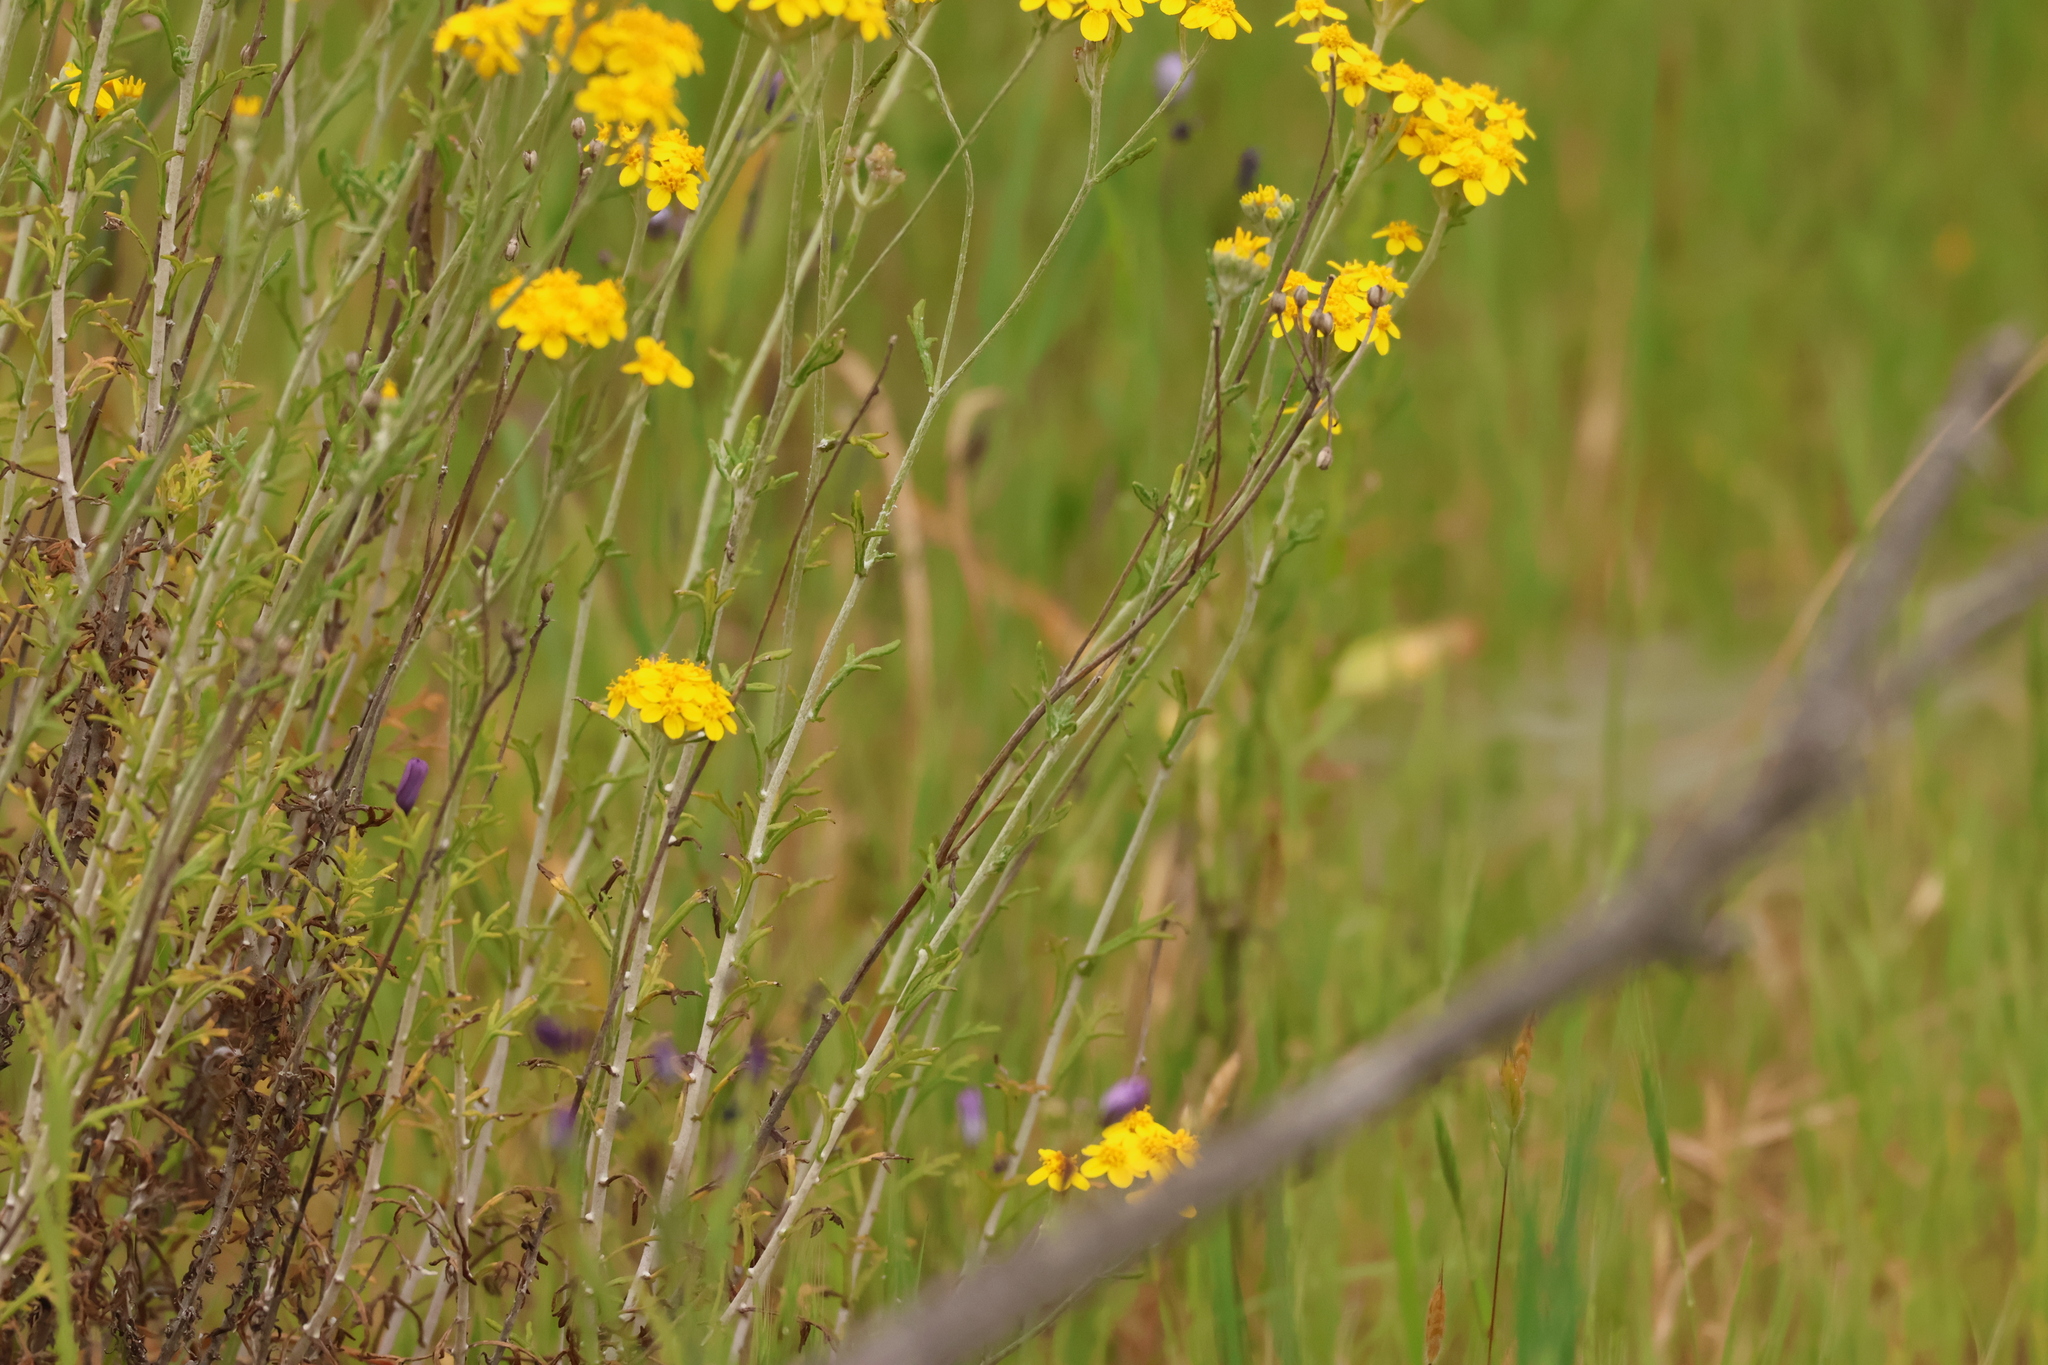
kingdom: Plantae
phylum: Tracheophyta
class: Magnoliopsida
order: Asterales
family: Asteraceae
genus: Eriophyllum
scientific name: Eriophyllum confertiflorum
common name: Golden-yarrow
